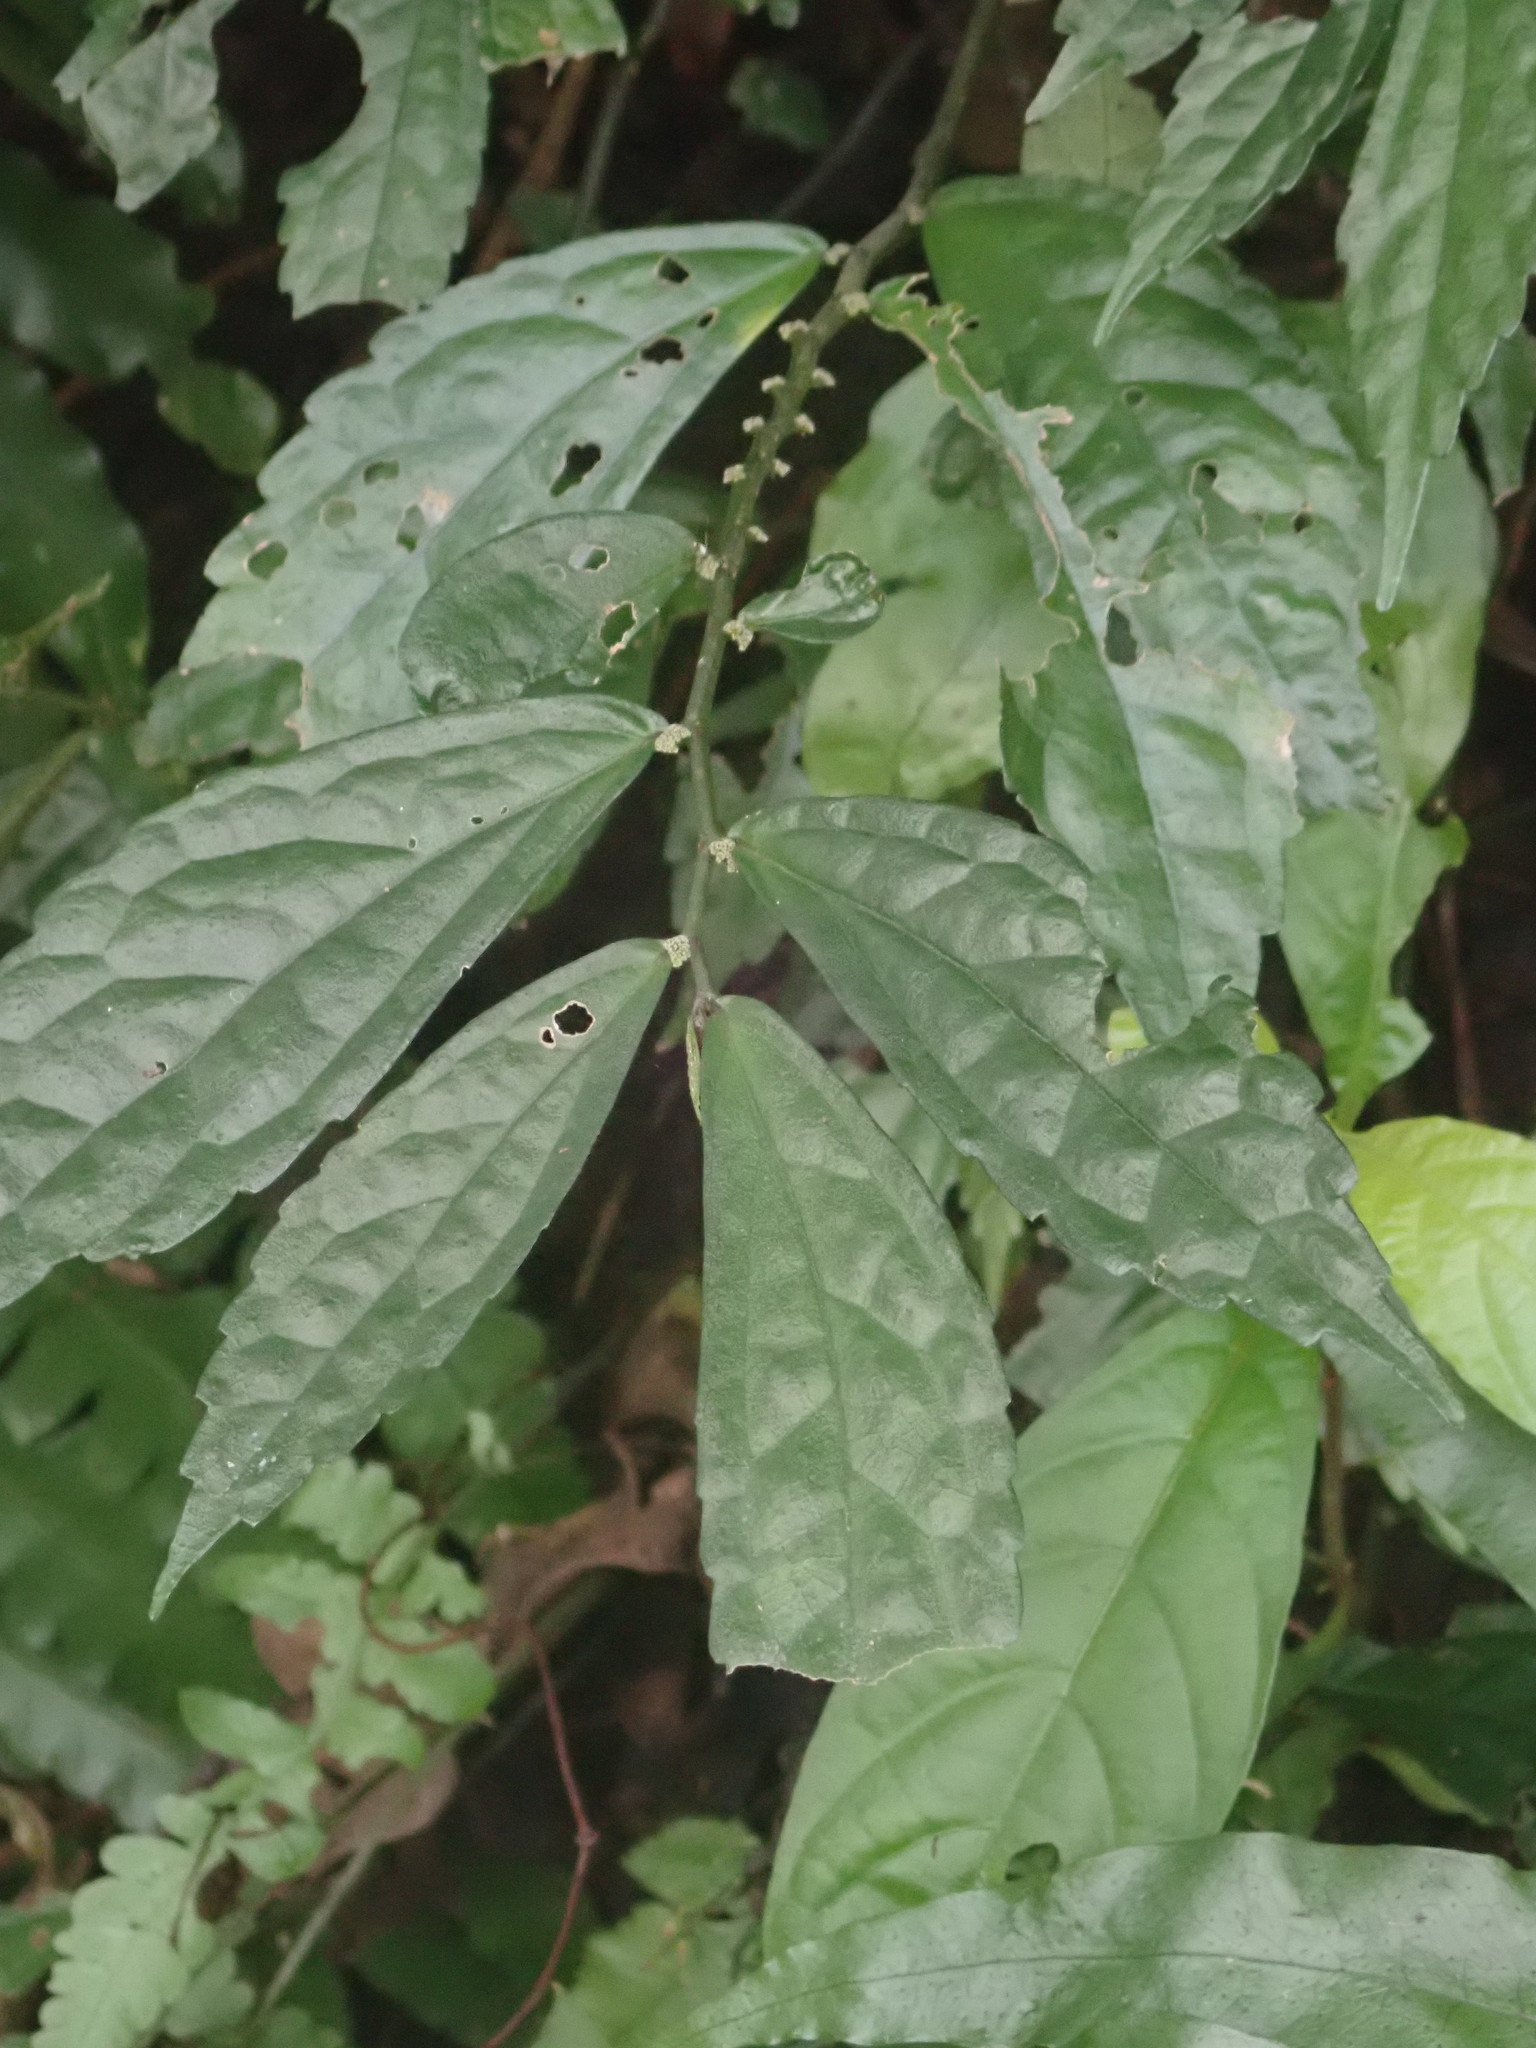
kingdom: Plantae
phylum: Tracheophyta
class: Magnoliopsida
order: Rosales
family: Urticaceae
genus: Elatostema
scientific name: Elatostema lineolatum
